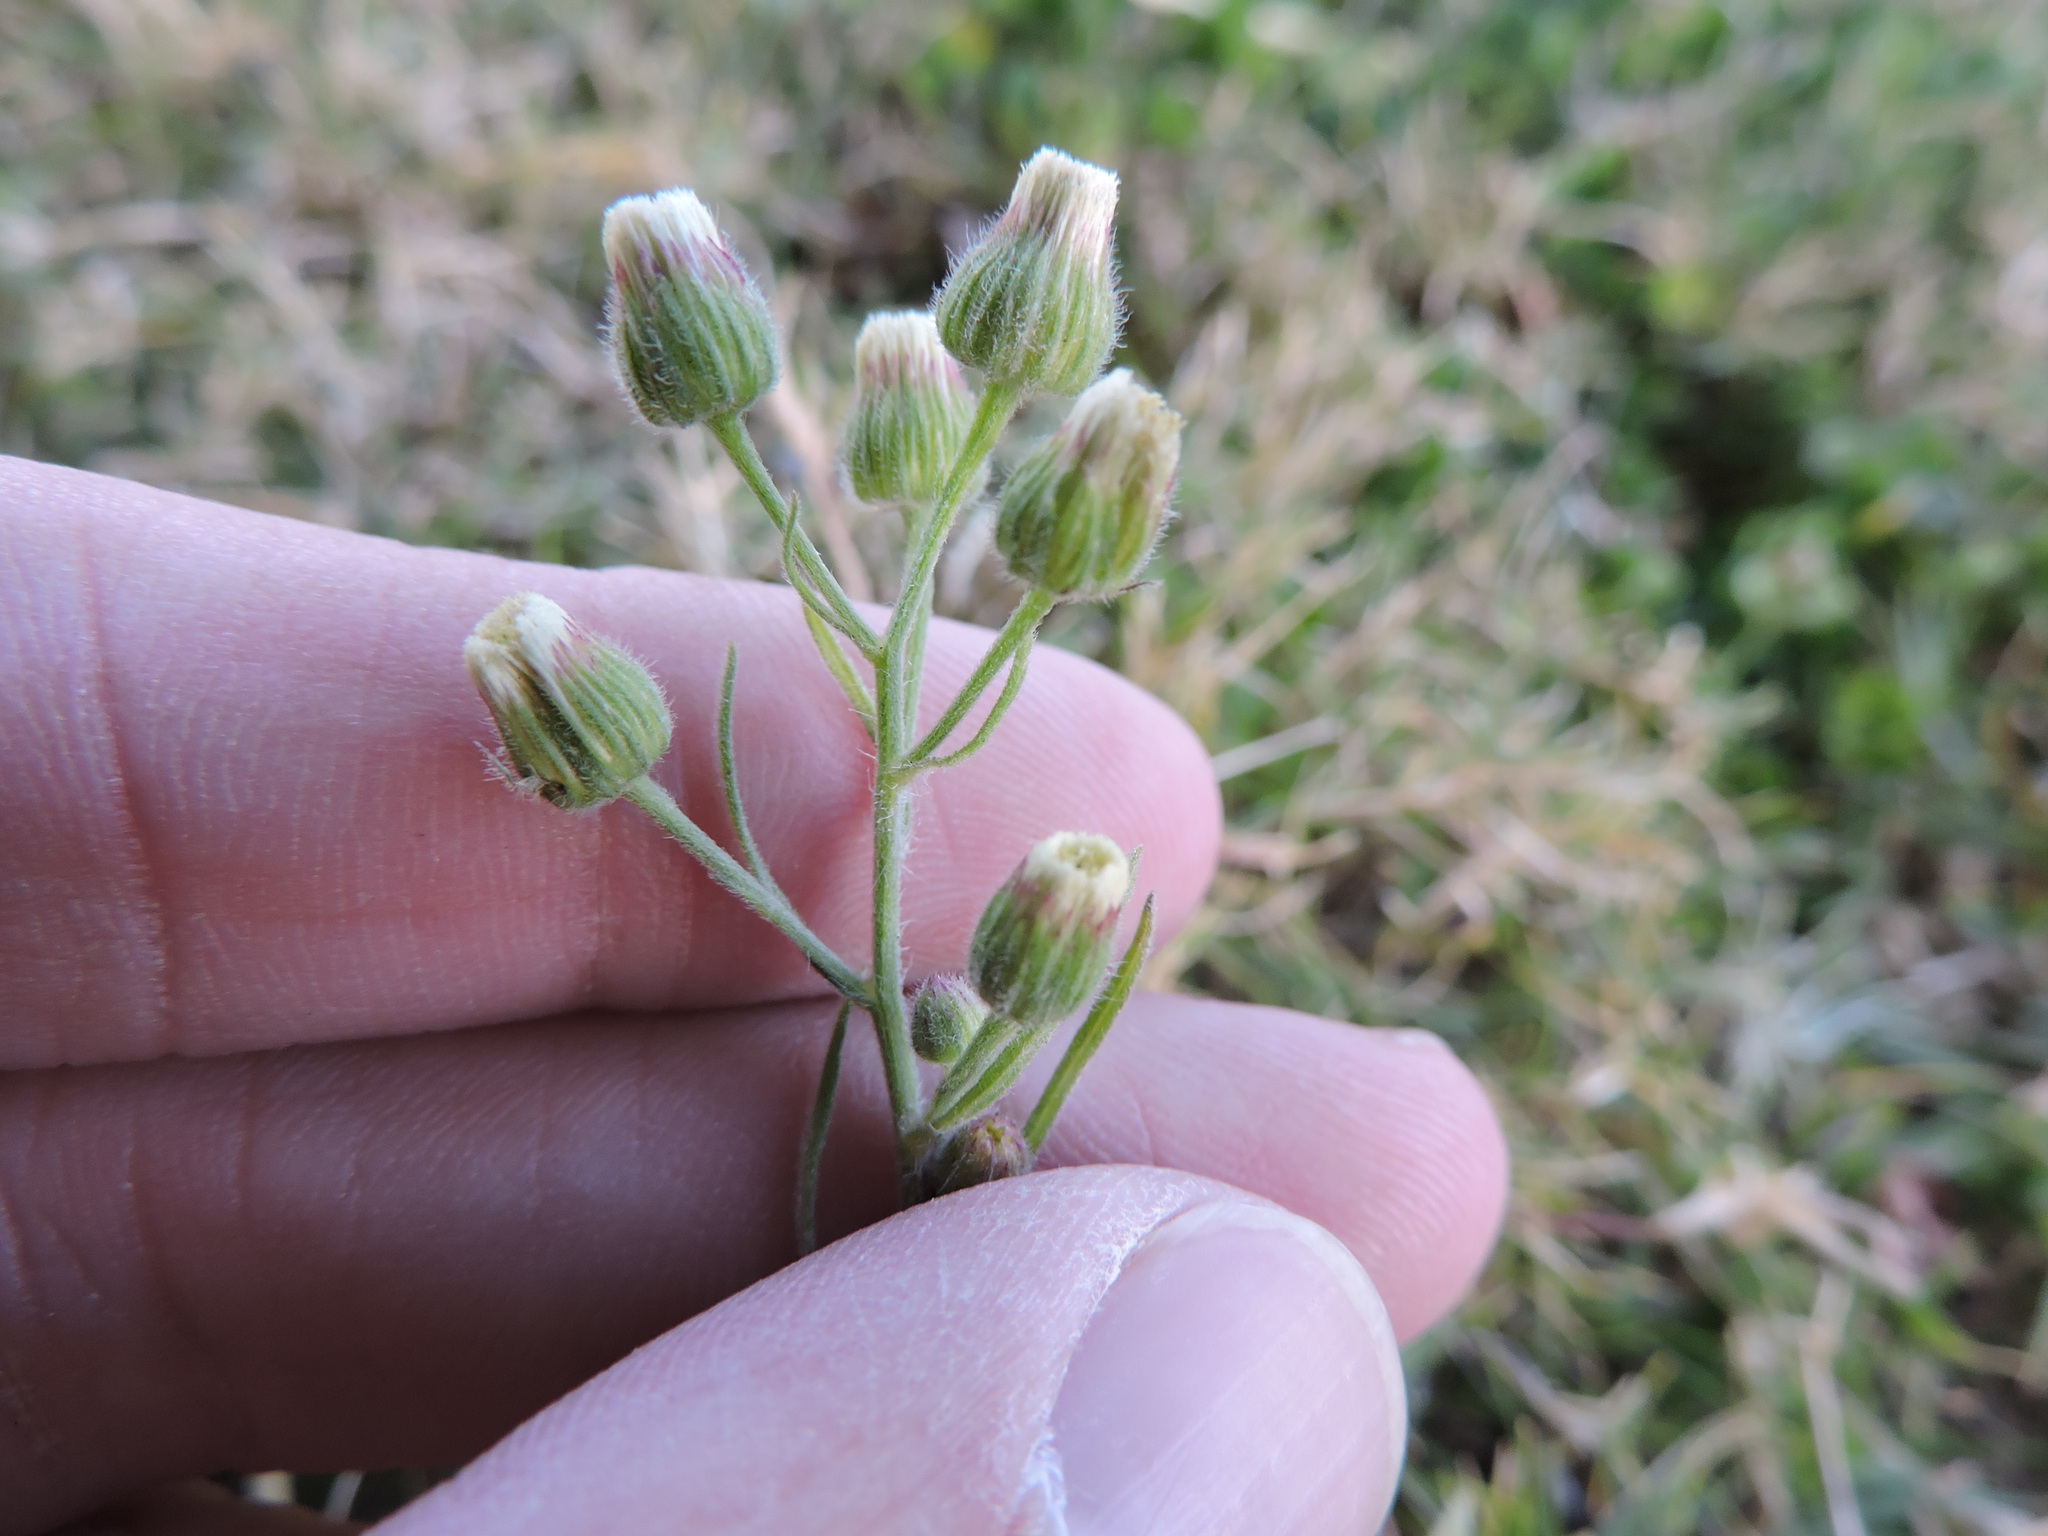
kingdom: Plantae
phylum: Tracheophyta
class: Magnoliopsida
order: Asterales
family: Asteraceae
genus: Erigeron
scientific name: Erigeron bonariensis
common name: Argentine fleabane
